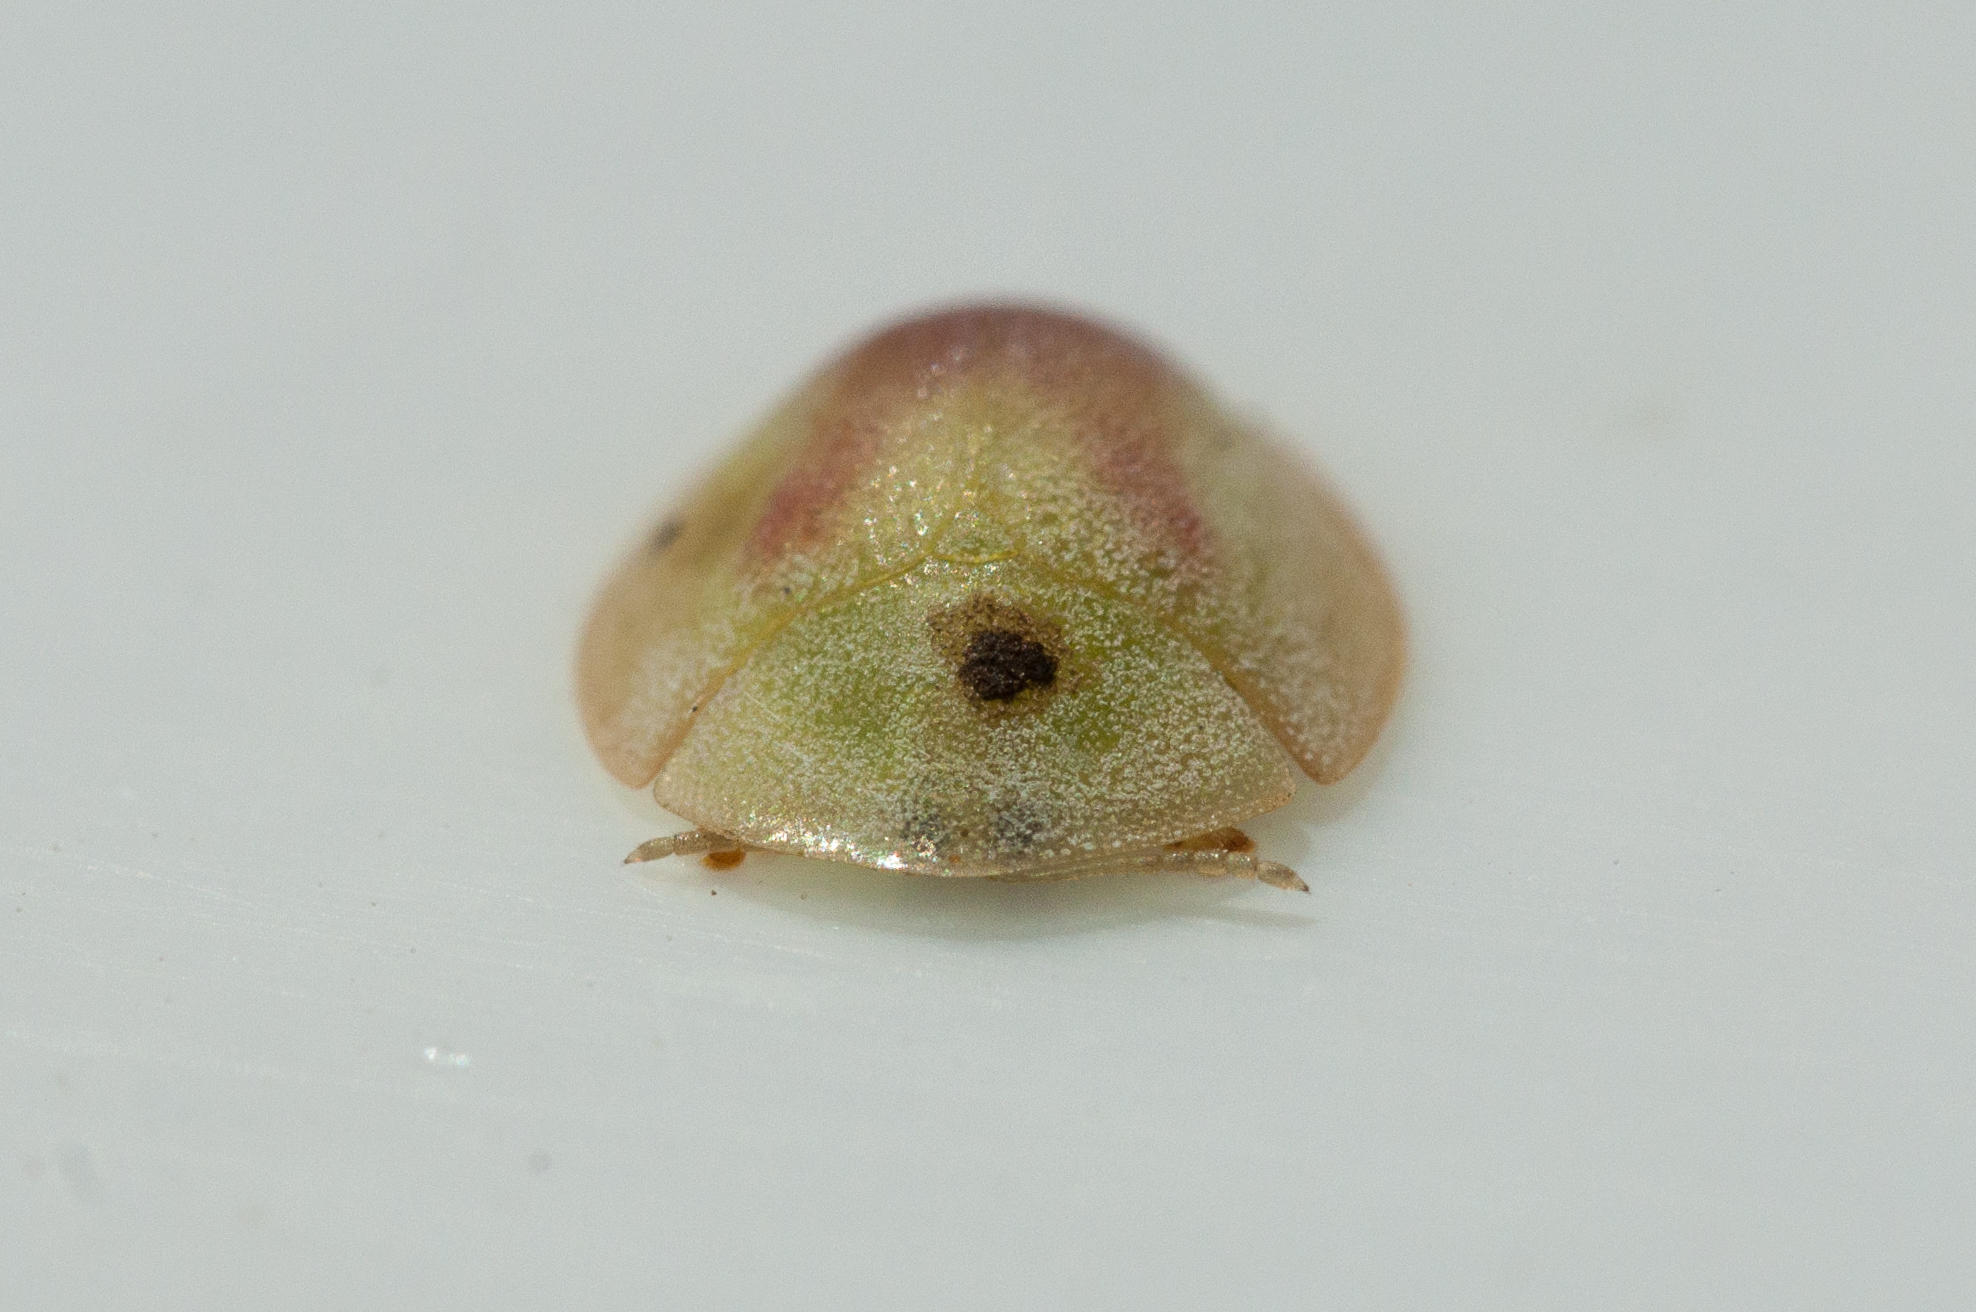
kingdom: Animalia
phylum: Arthropoda
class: Insecta
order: Coleoptera
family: Chrysomelidae
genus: Cassida
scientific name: Cassida pudens
